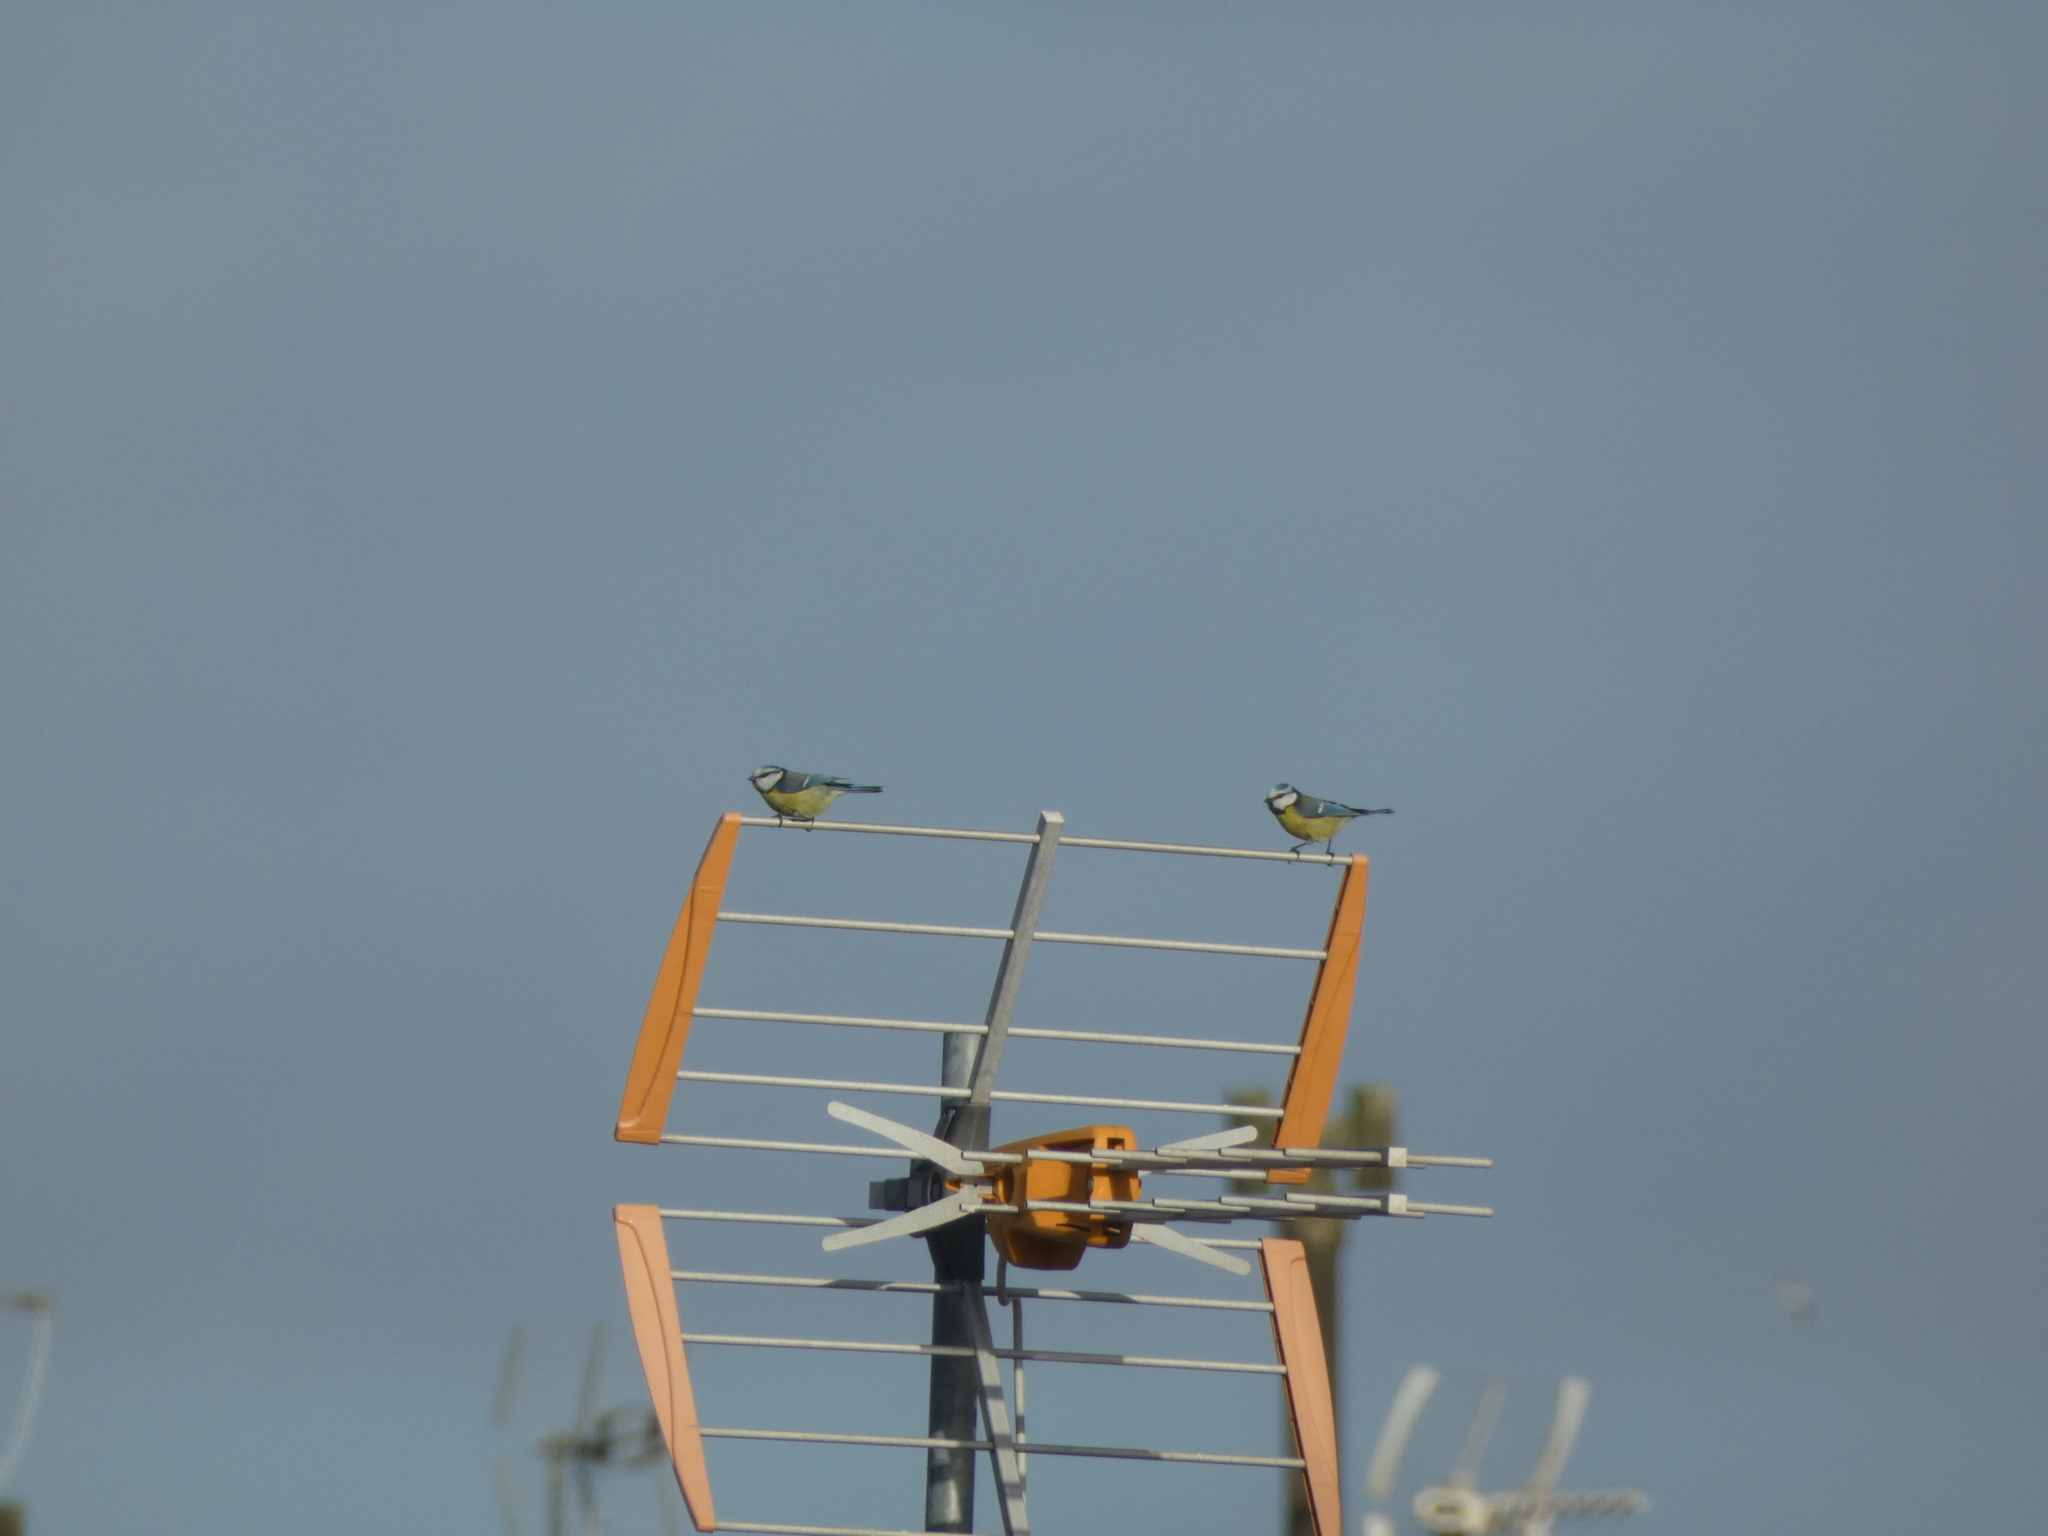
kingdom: Animalia
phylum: Chordata
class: Aves
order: Passeriformes
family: Paridae
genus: Cyanistes
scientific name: Cyanistes caeruleus
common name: Eurasian blue tit
